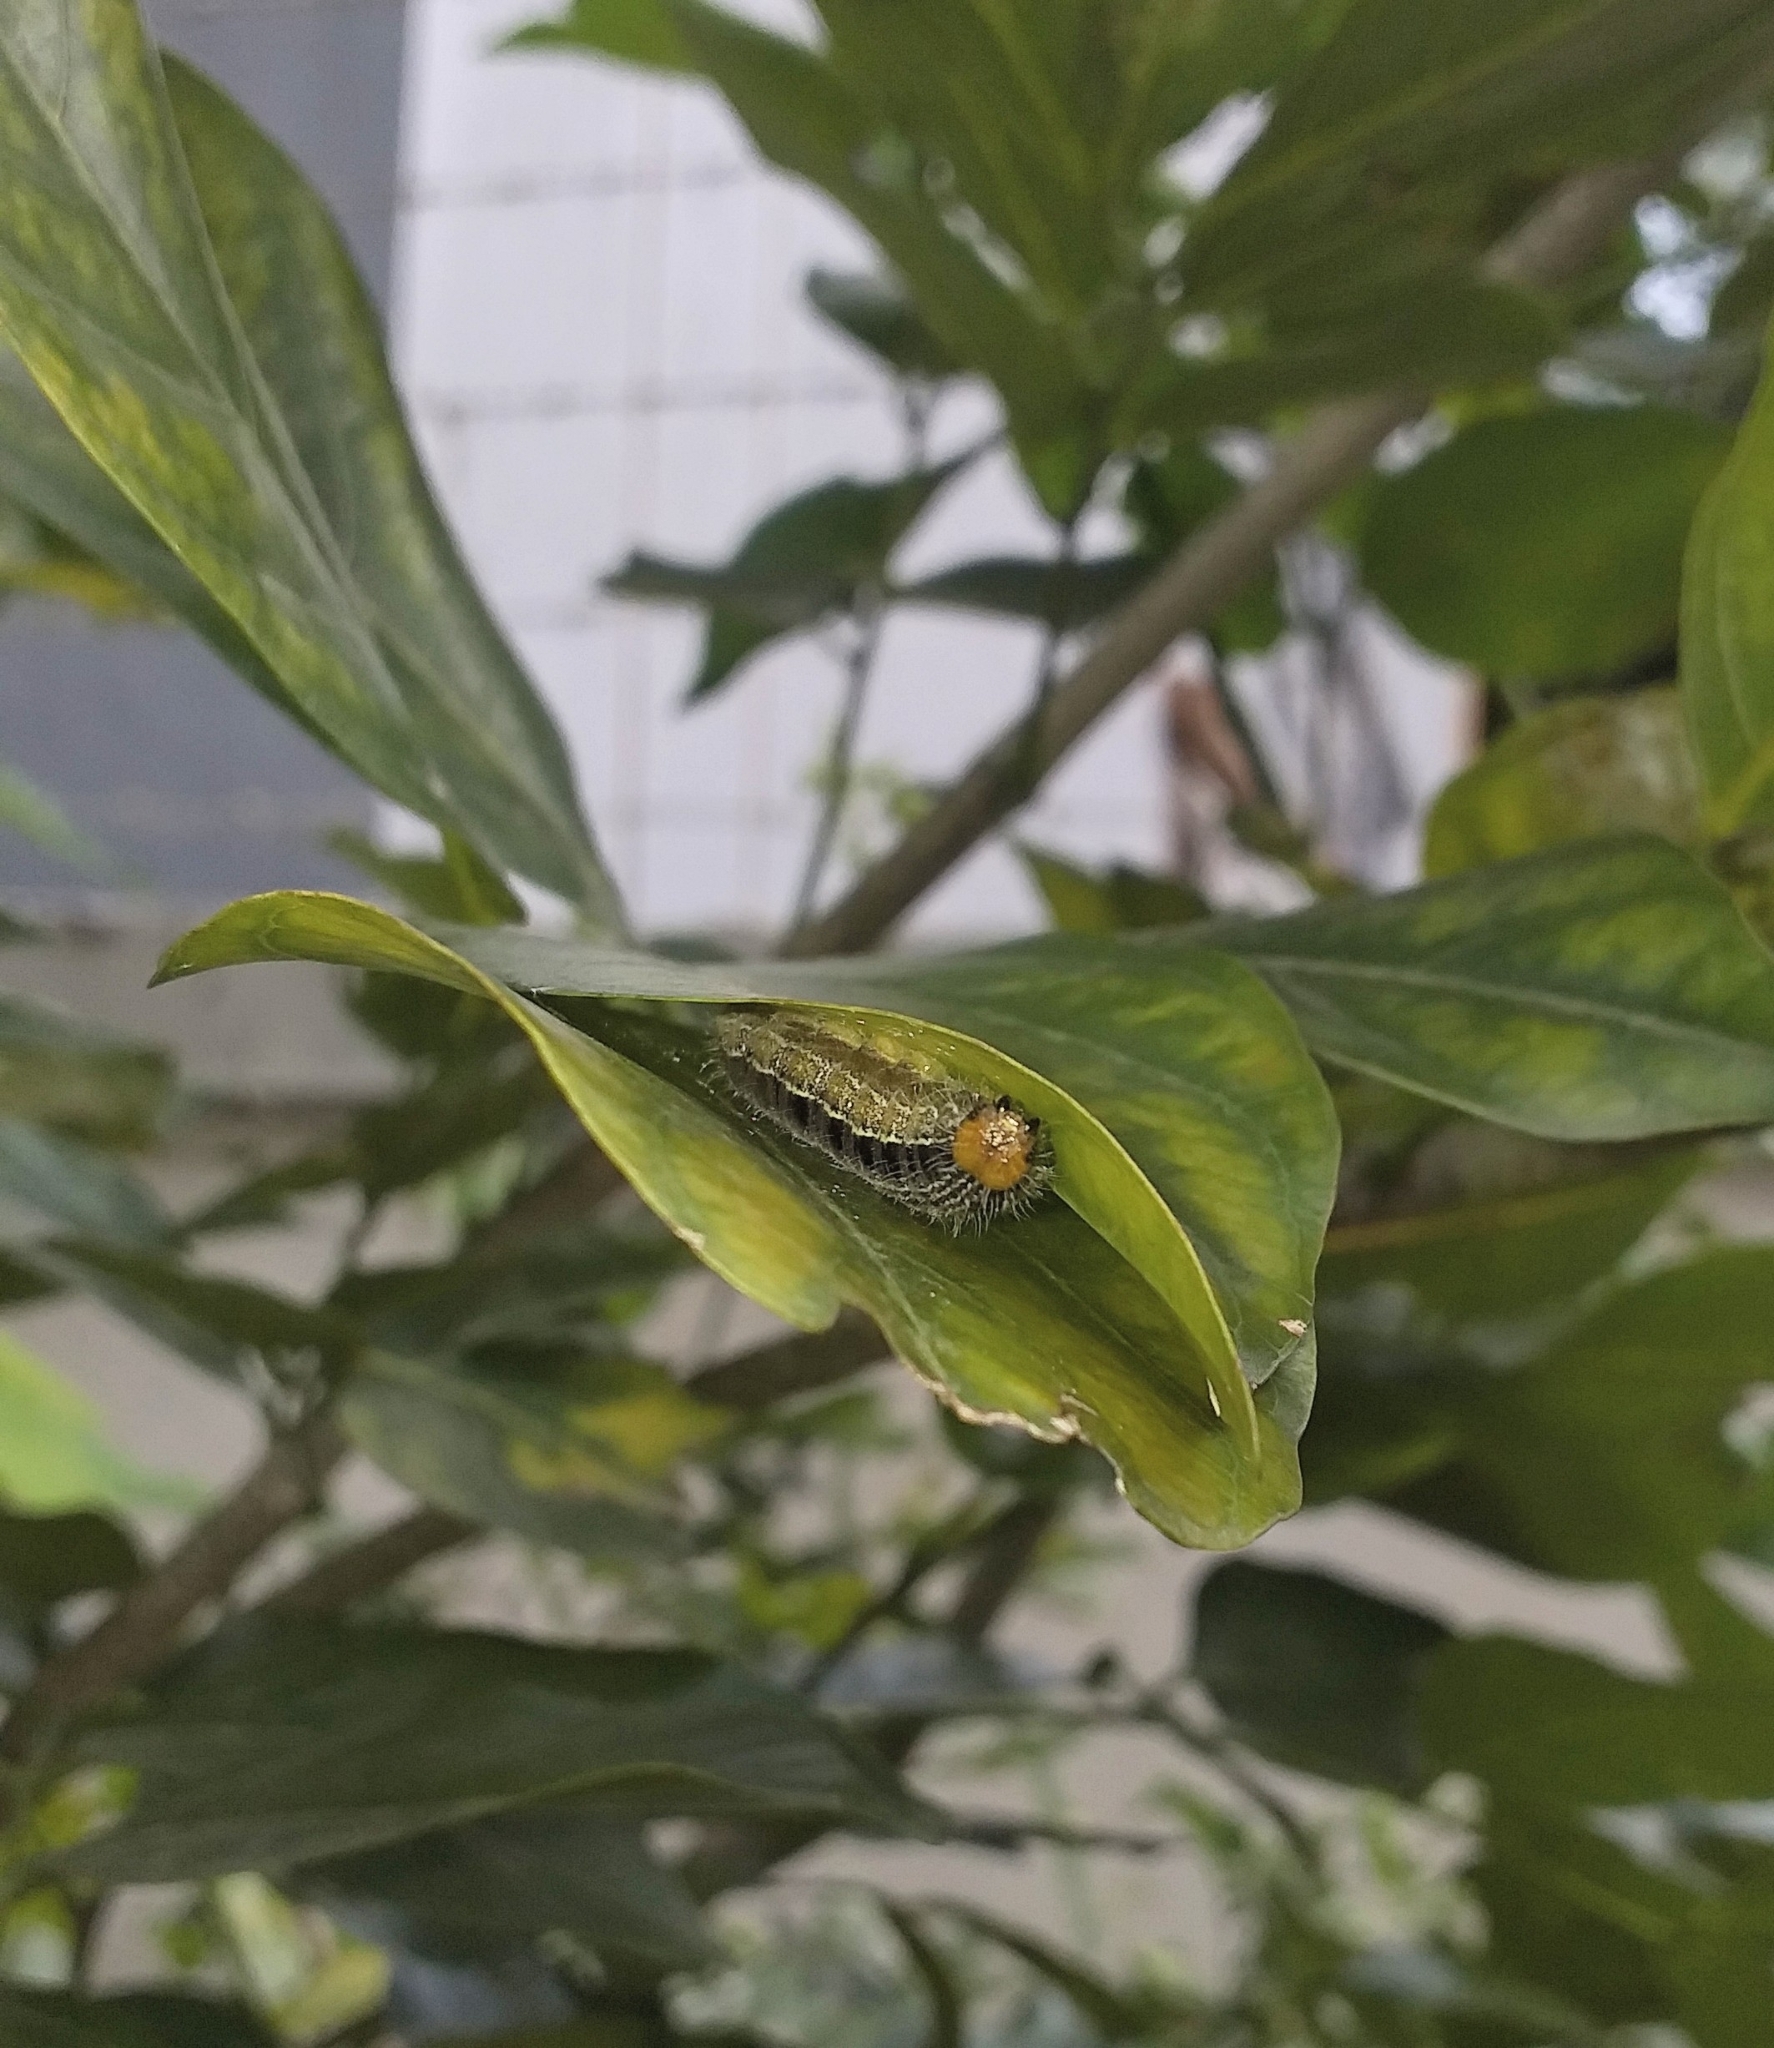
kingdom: Animalia
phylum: Arthropoda
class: Insecta
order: Lepidoptera
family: Hesperiidae
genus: Hasora
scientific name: Hasora chromus
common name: Common banded awl
